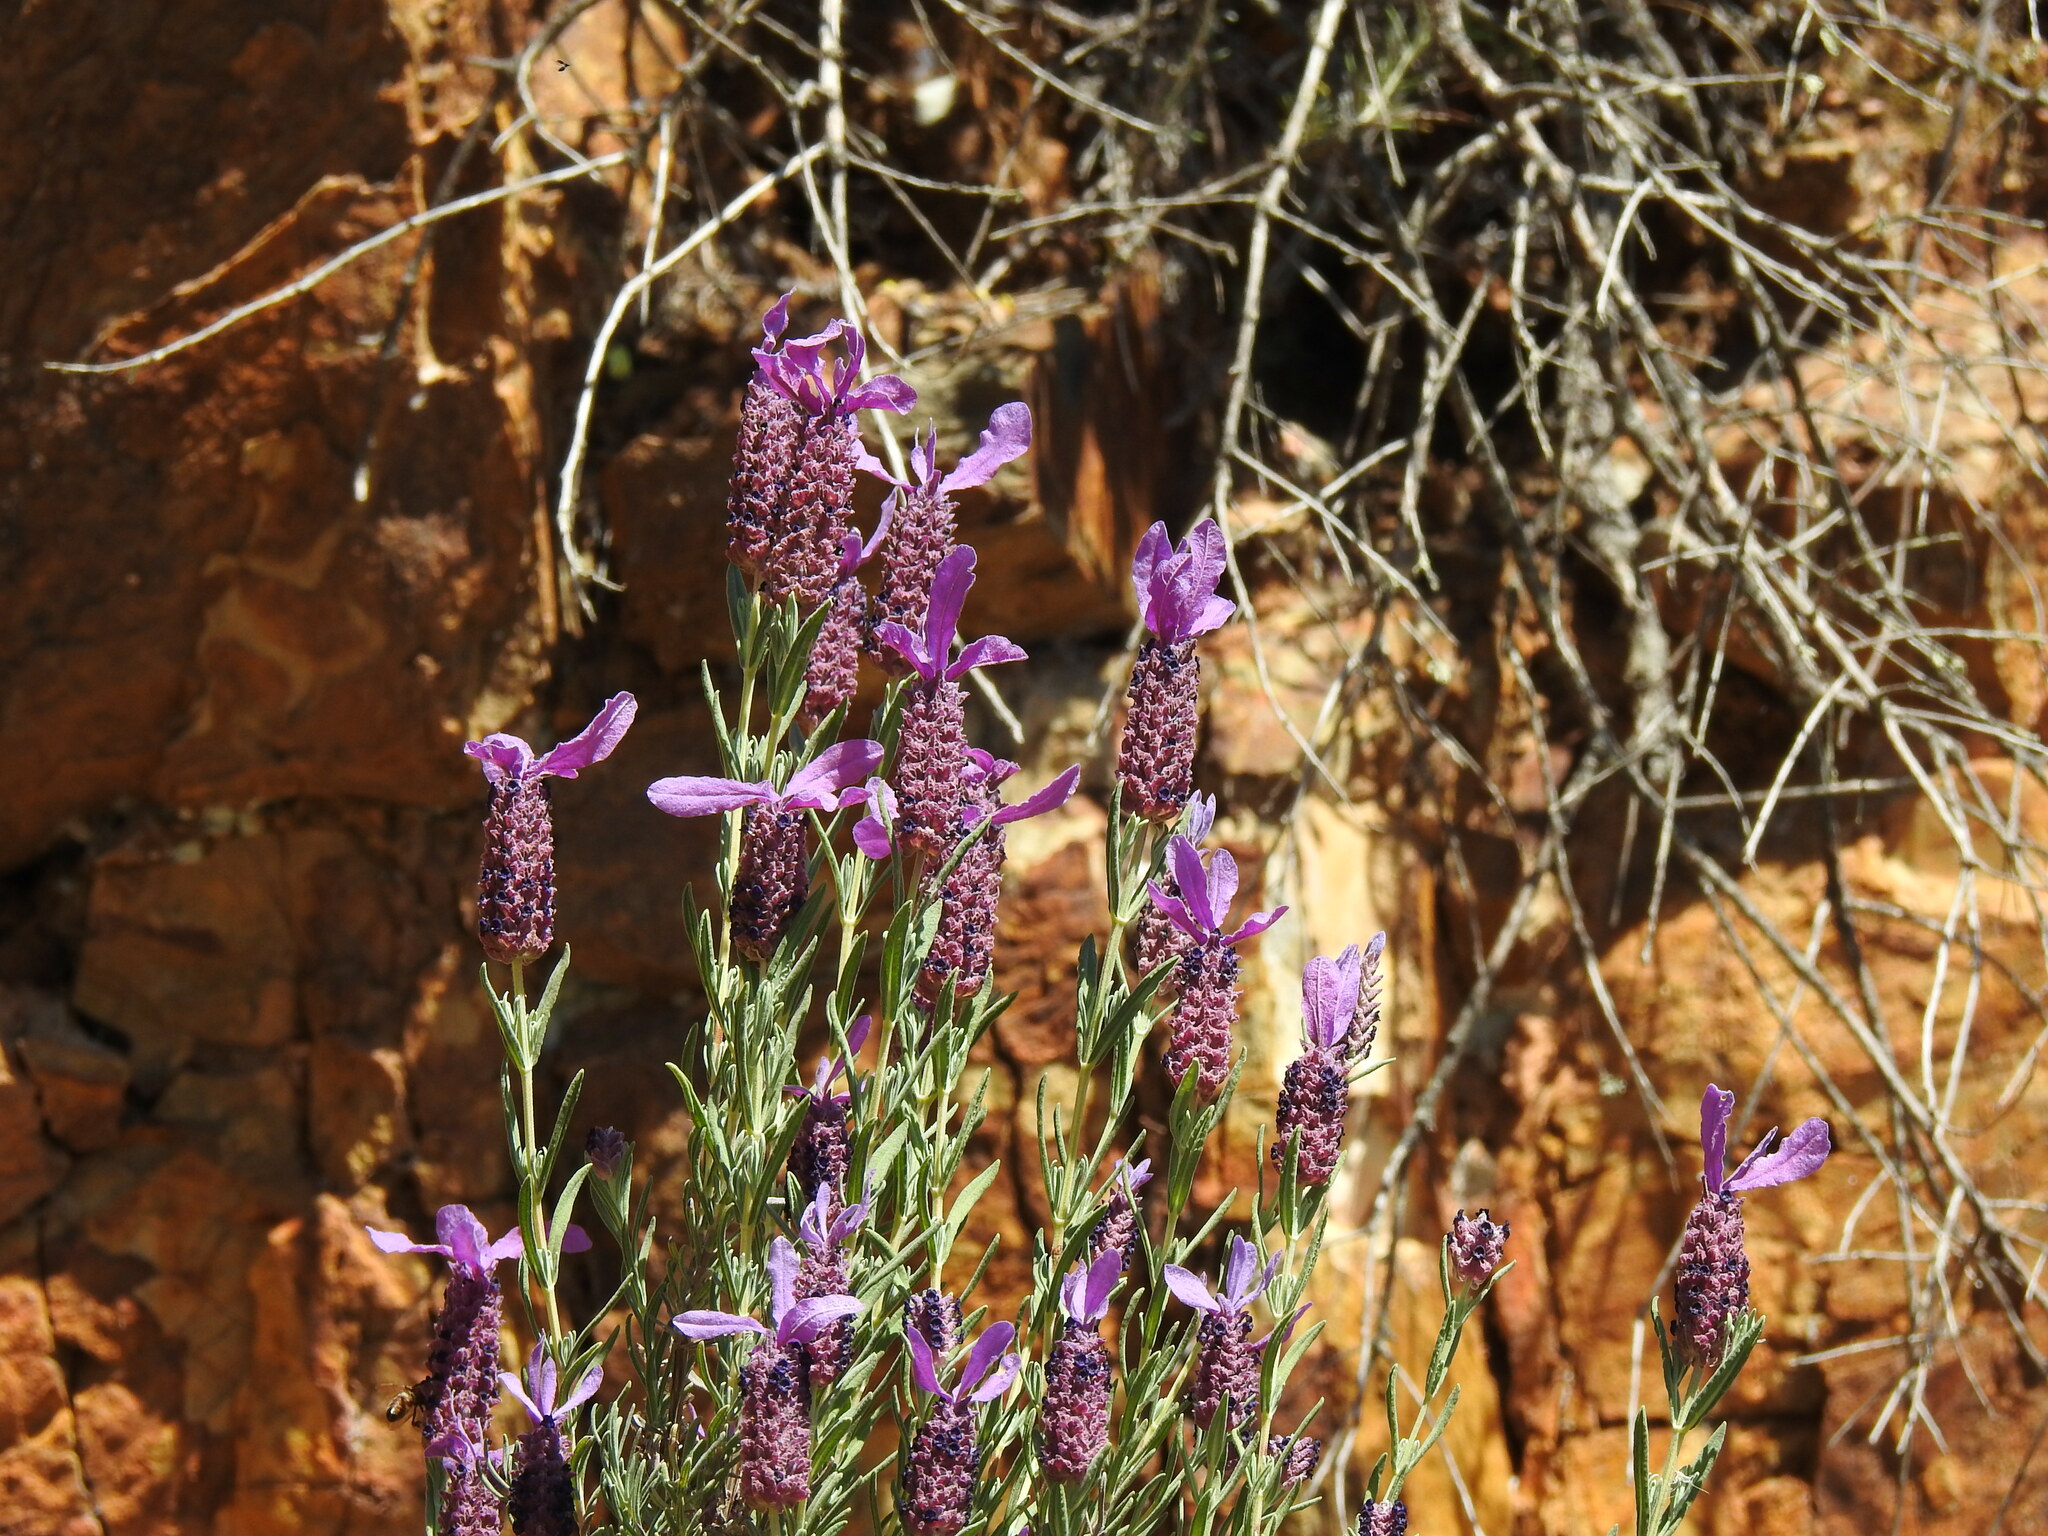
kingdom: Plantae
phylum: Tracheophyta
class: Magnoliopsida
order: Lamiales
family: Lamiaceae
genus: Lavandula
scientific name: Lavandula stoechas
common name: French lavender
